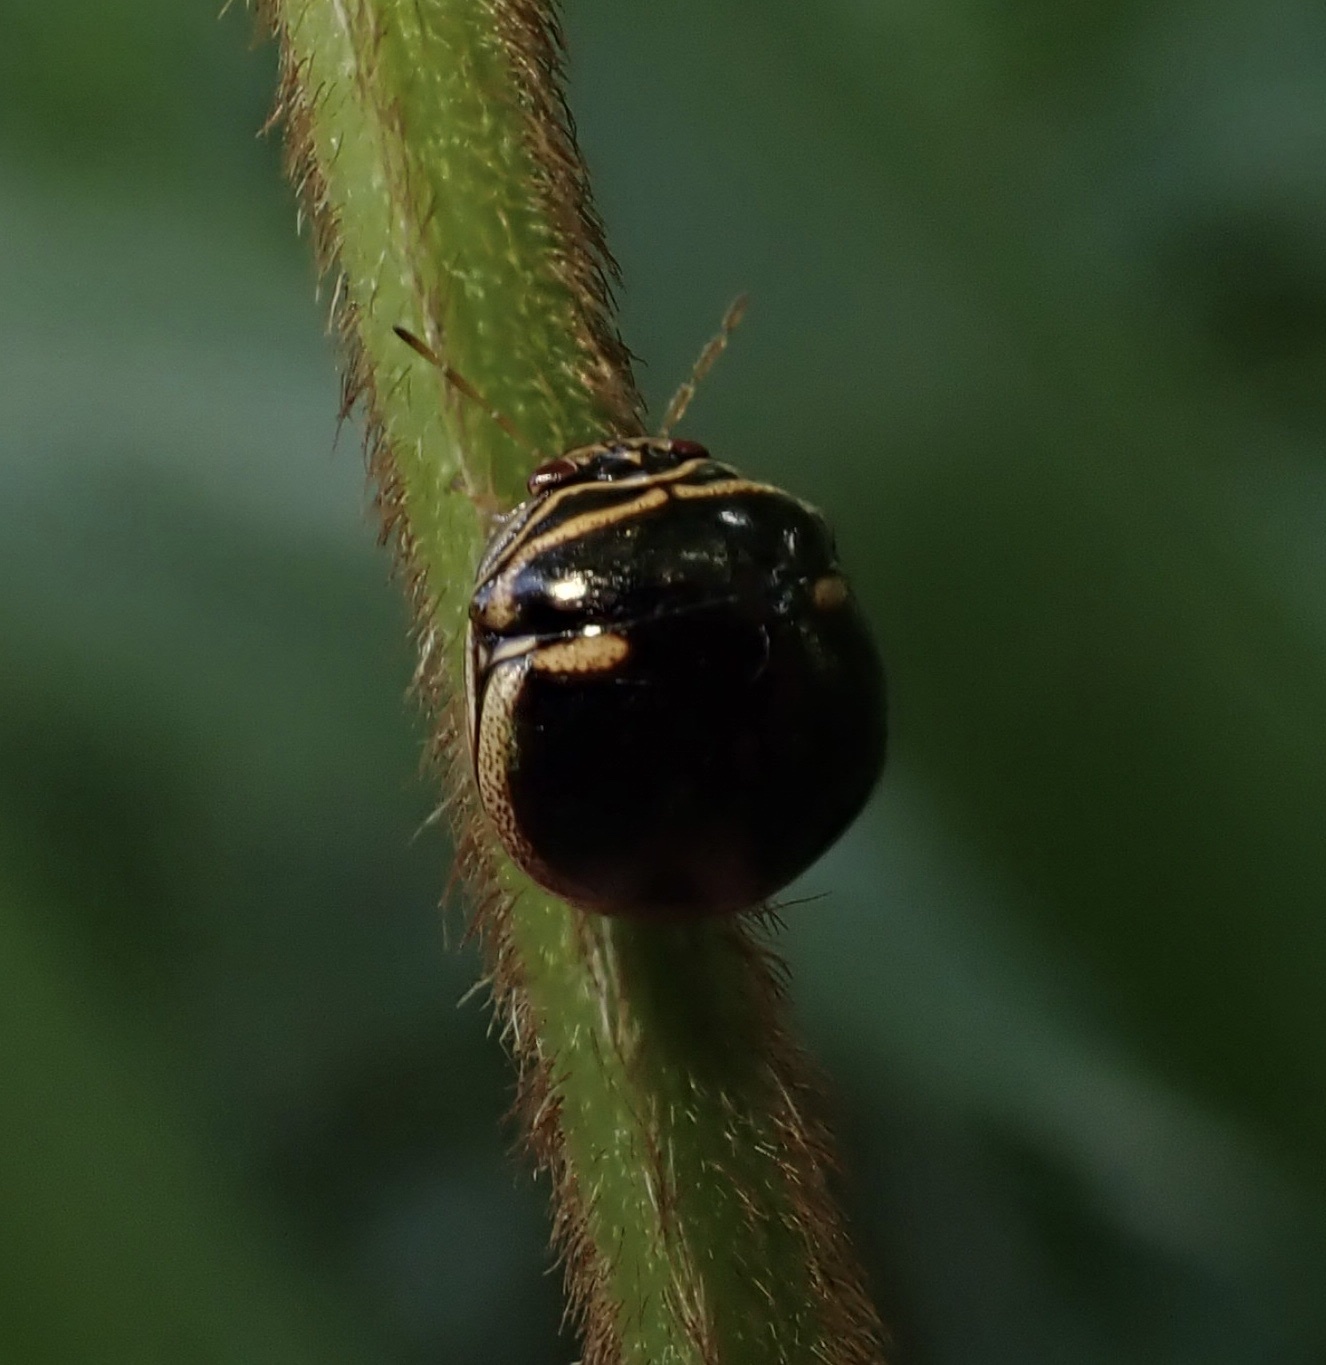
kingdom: Animalia
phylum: Arthropoda
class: Insecta
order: Hemiptera
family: Plataspidae
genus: Coptosoma
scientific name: Coptosoma
